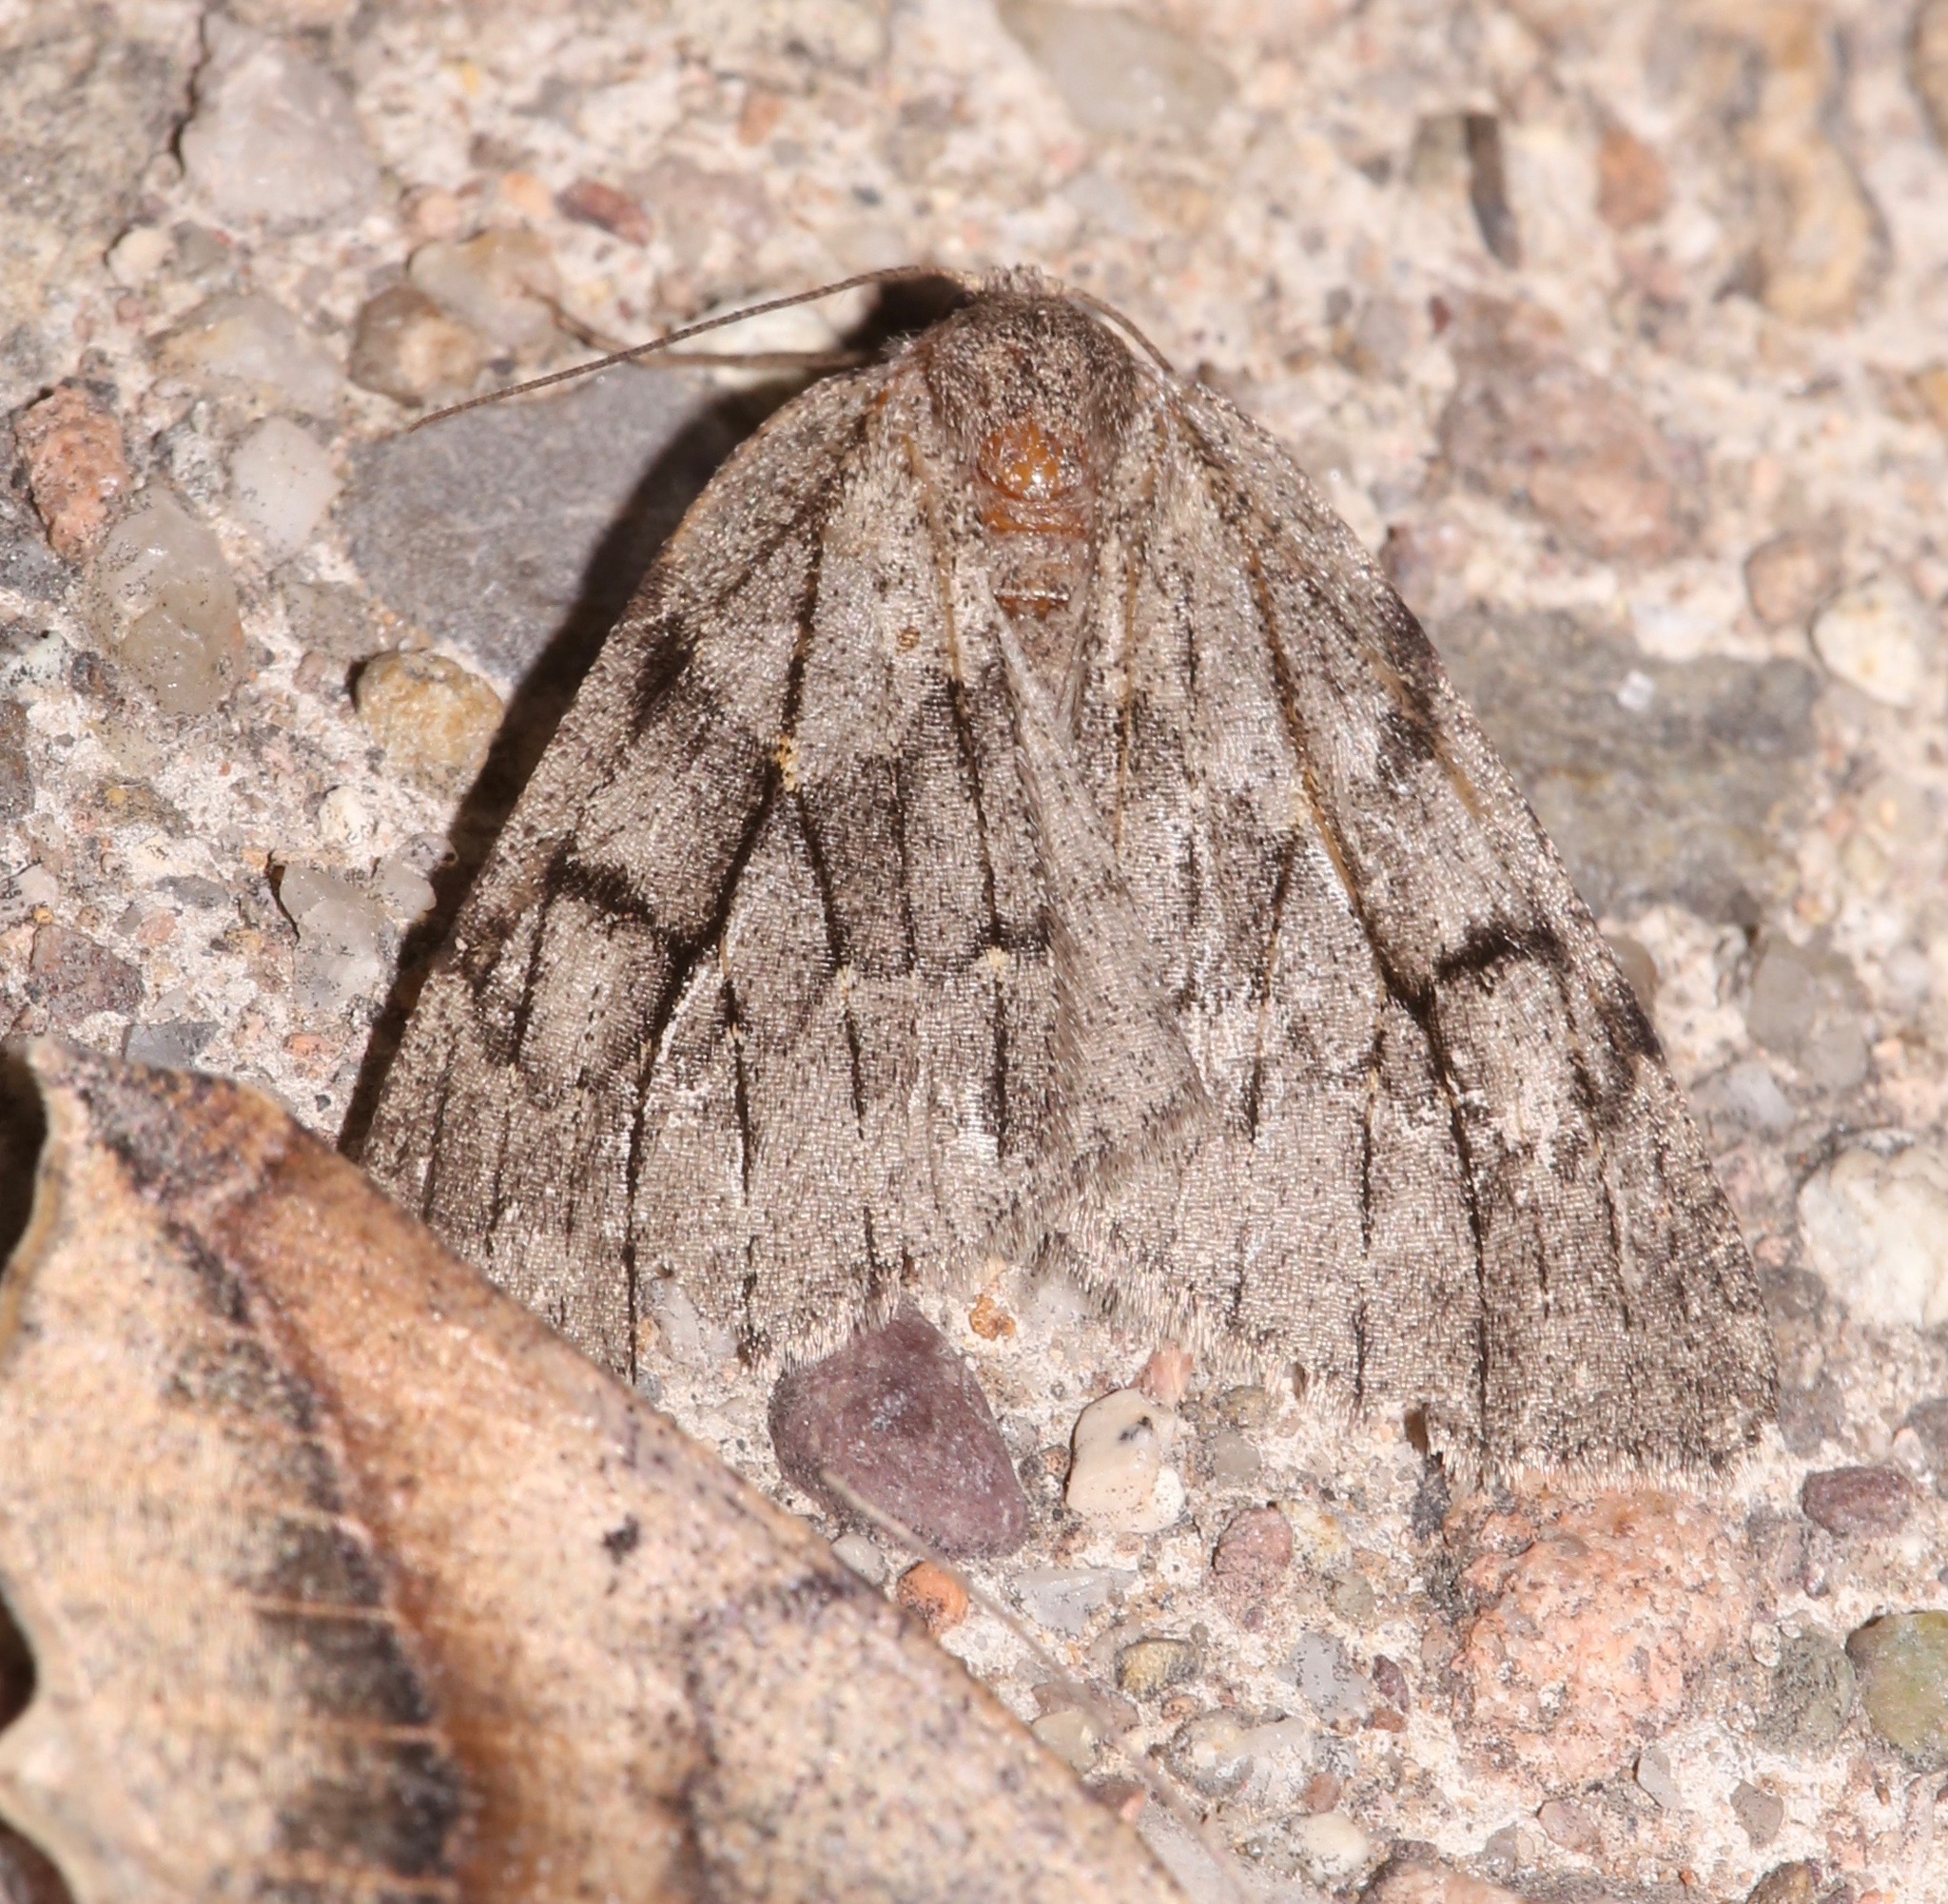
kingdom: Animalia
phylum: Arthropoda
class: Insecta
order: Lepidoptera
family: Geometridae
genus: Nepytia
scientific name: Nepytia swetti
